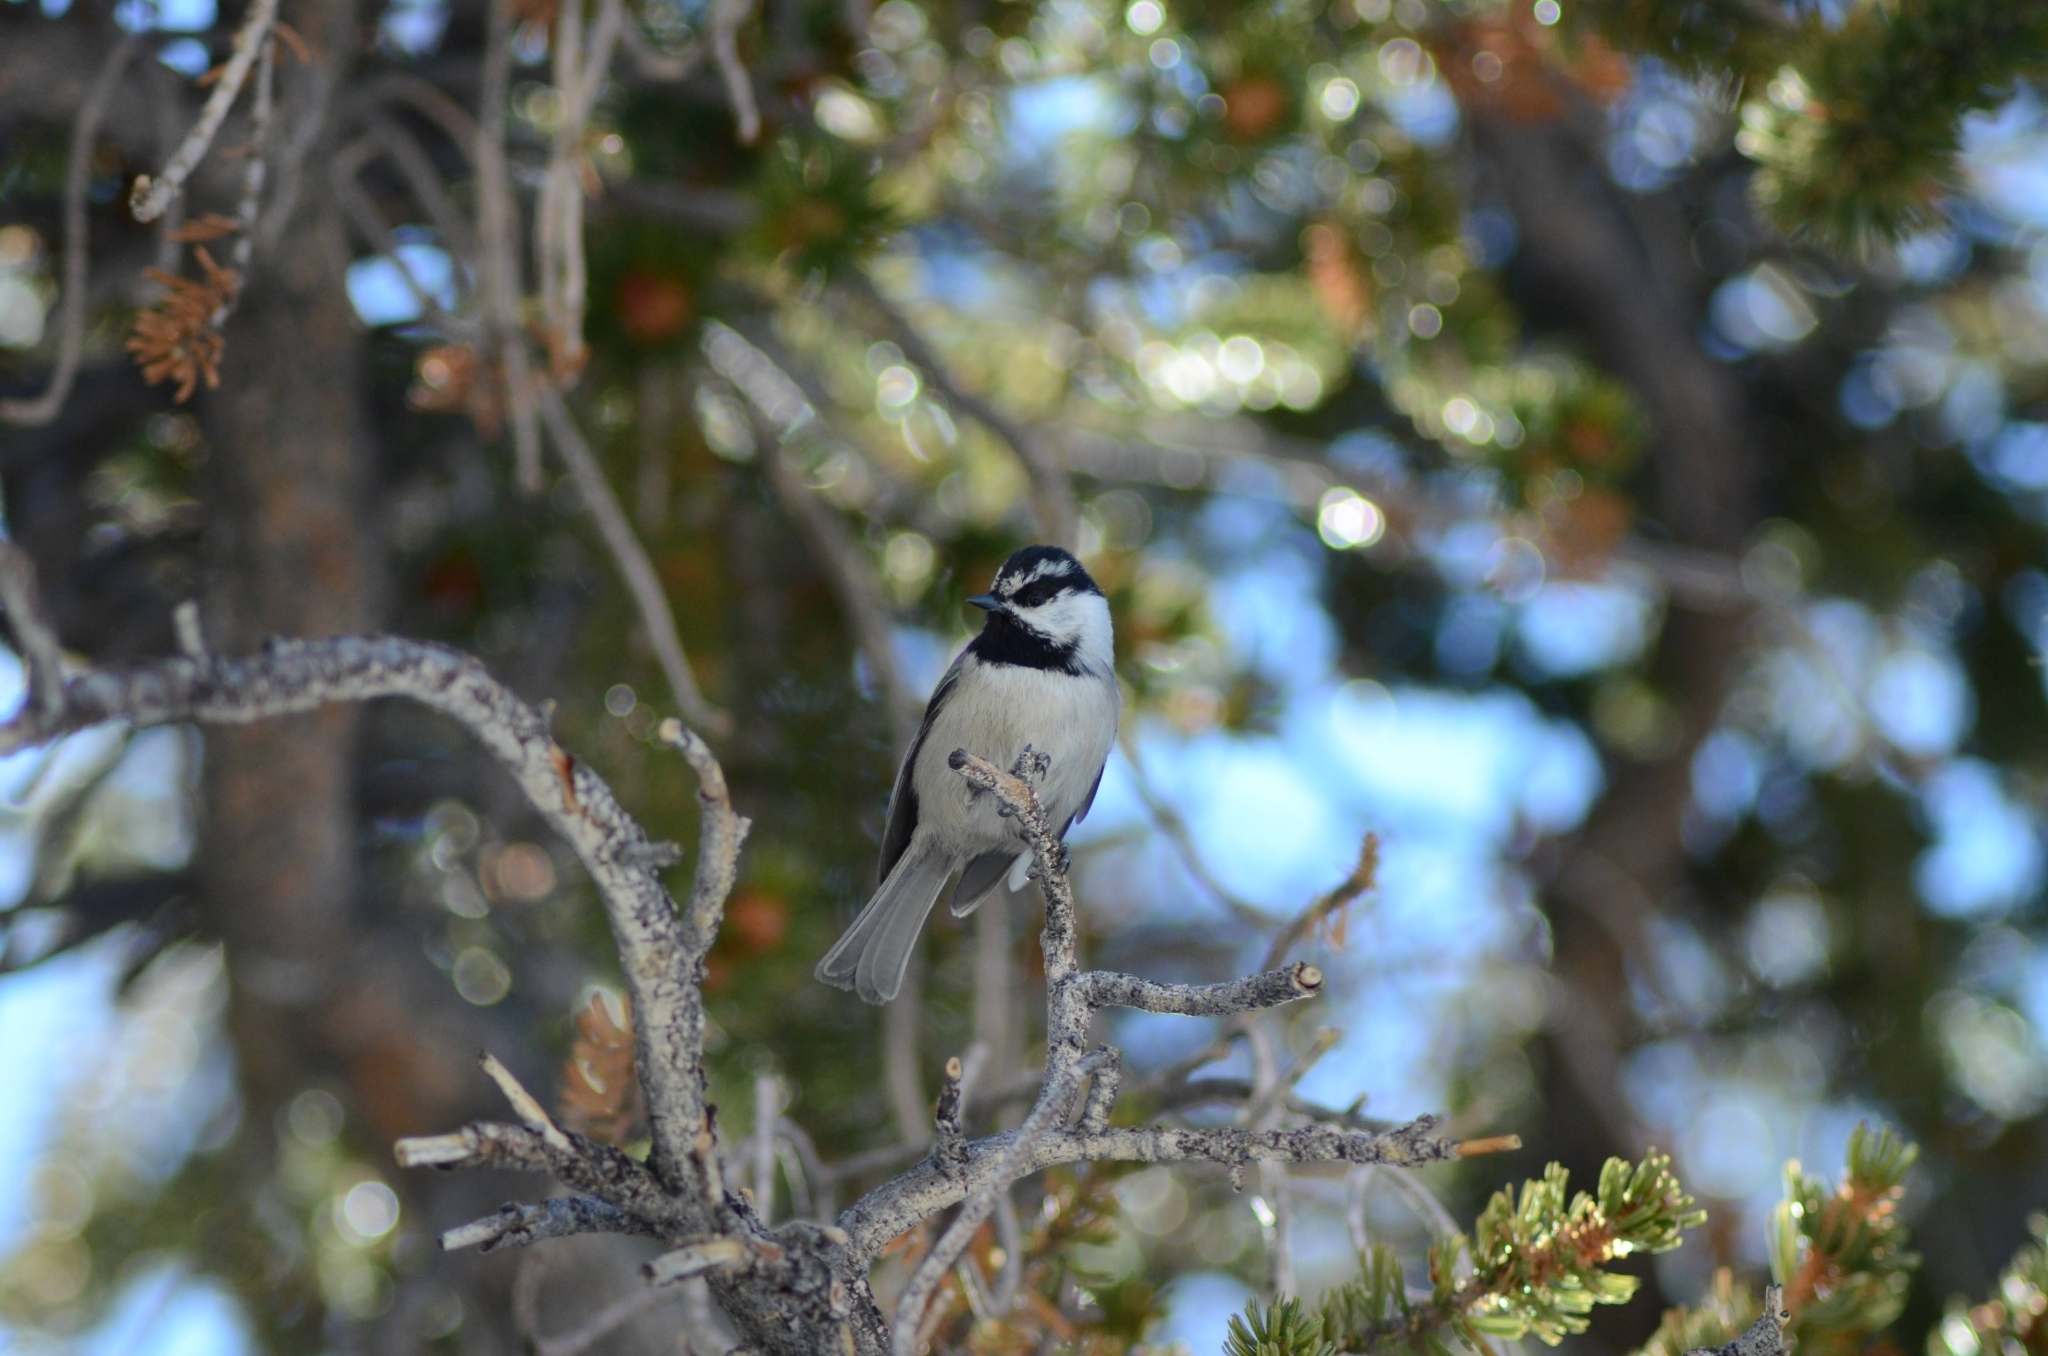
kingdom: Animalia
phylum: Chordata
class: Aves
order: Passeriformes
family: Paridae
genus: Poecile
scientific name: Poecile gambeli
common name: Mountain chickadee
